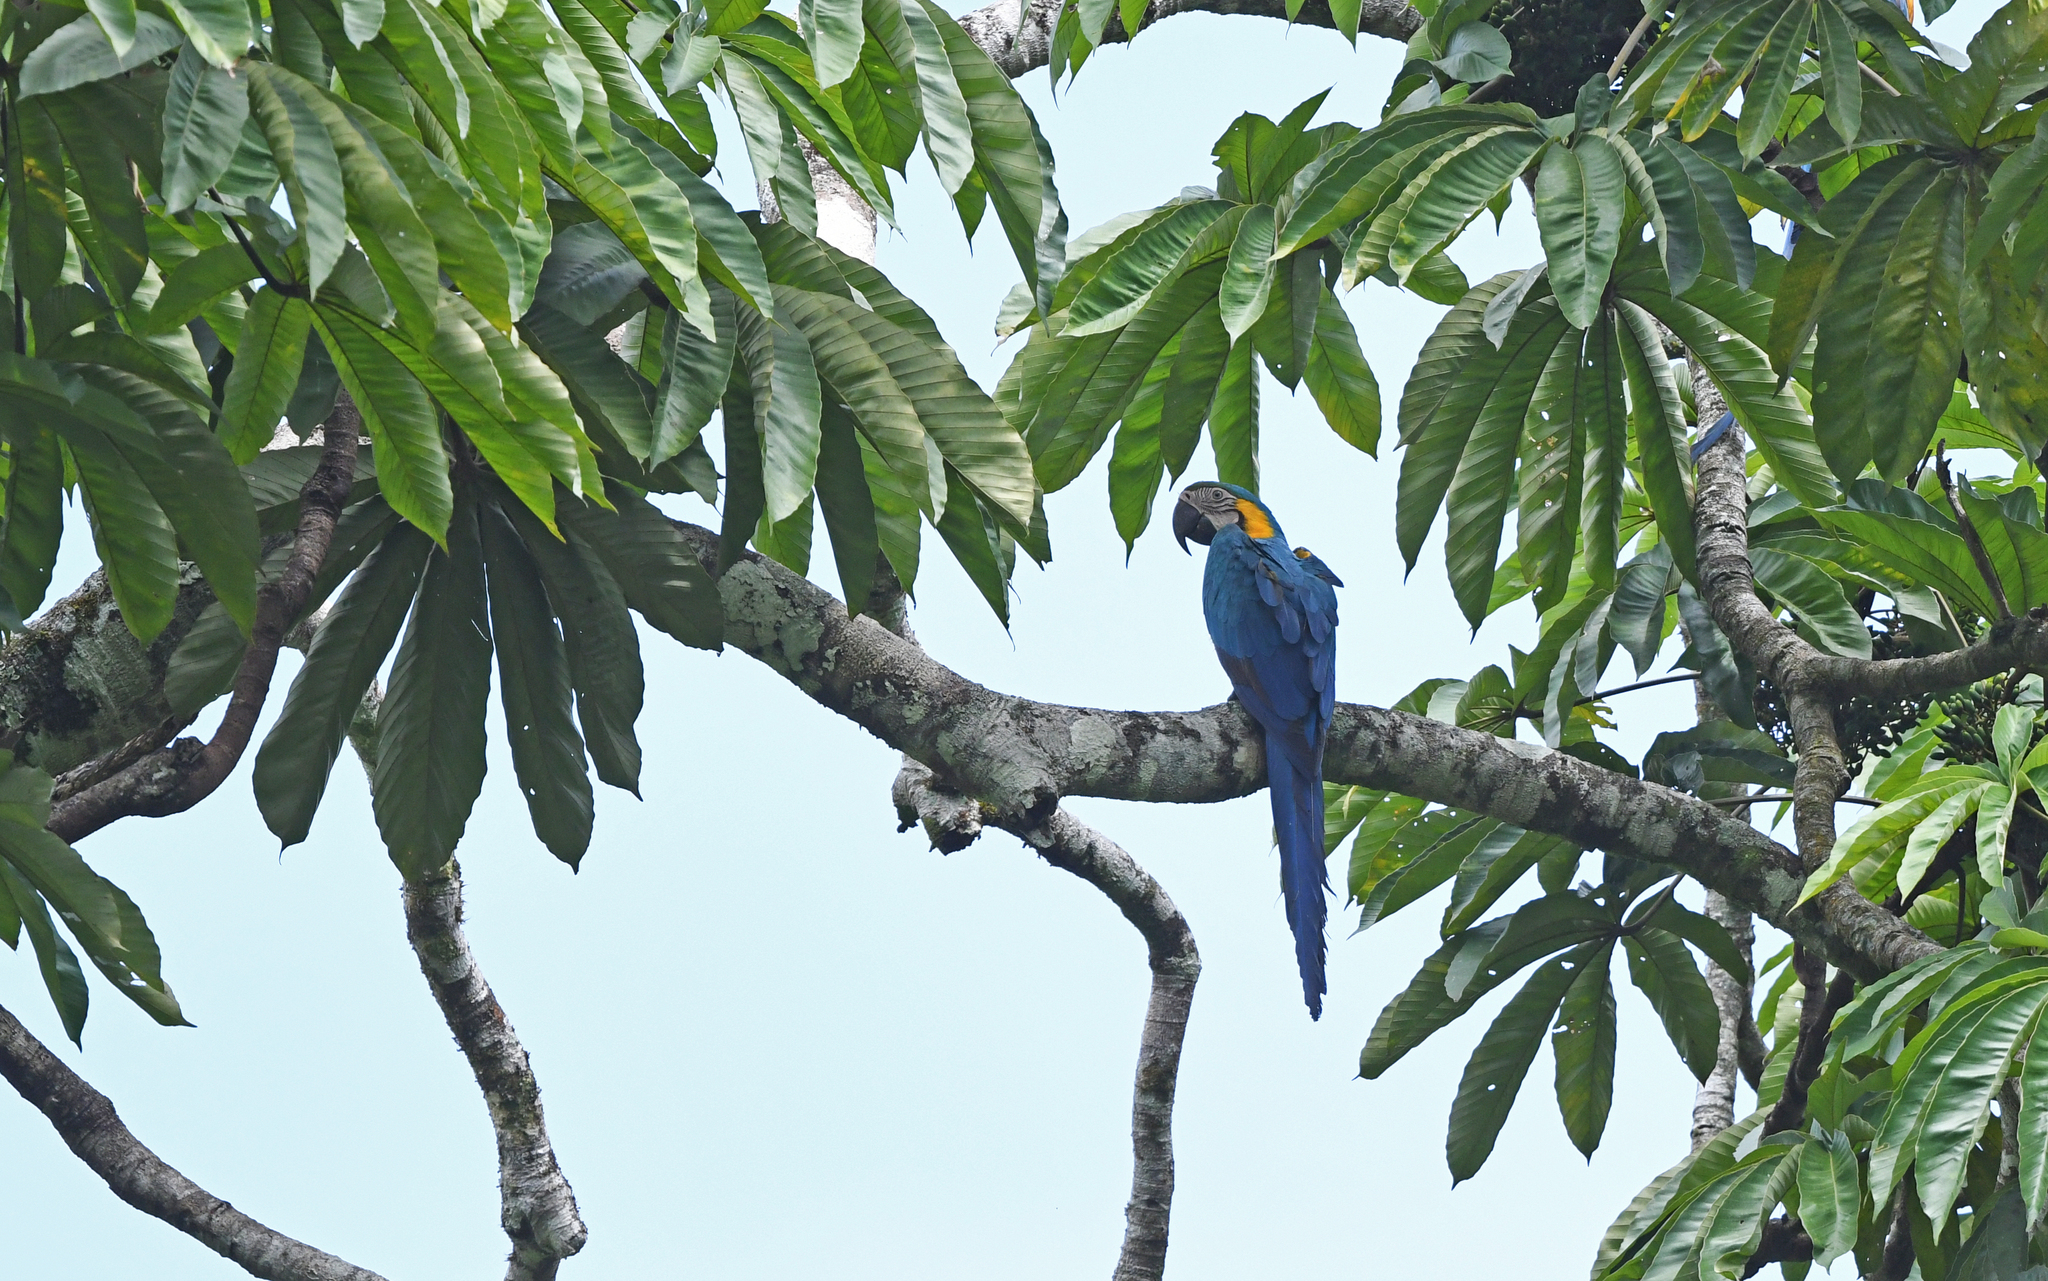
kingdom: Animalia
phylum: Chordata
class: Aves
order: Psittaciformes
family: Psittacidae
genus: Ara
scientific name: Ara ararauna
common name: Blue-and-yellow macaw
